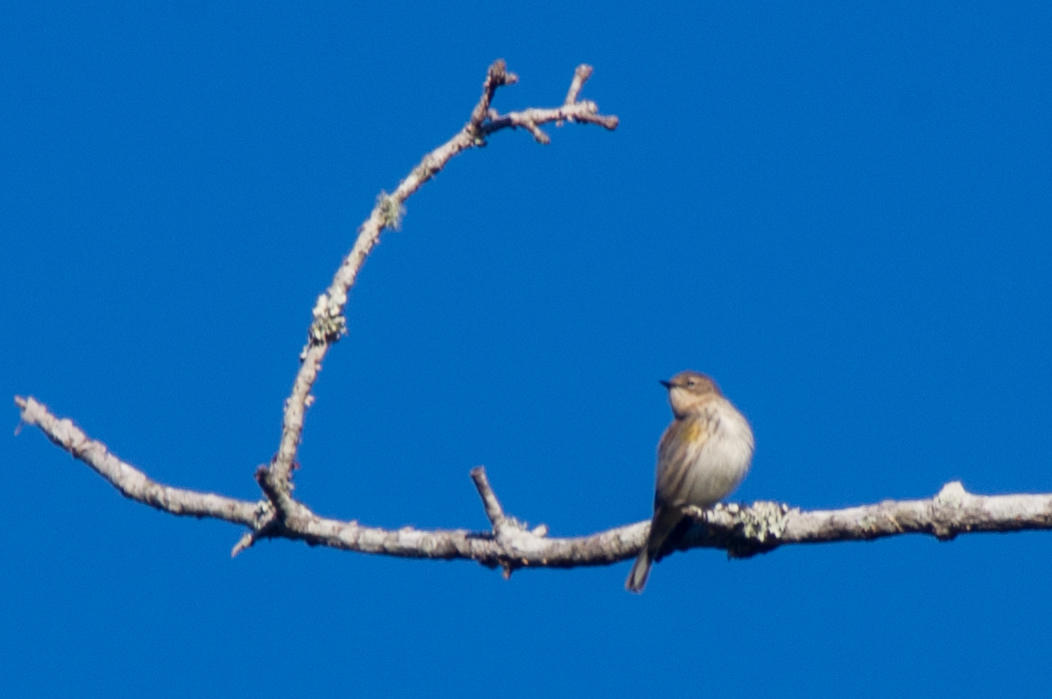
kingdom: Animalia
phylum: Chordata
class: Aves
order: Passeriformes
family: Parulidae
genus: Setophaga
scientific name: Setophaga coronata
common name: Myrtle warbler
